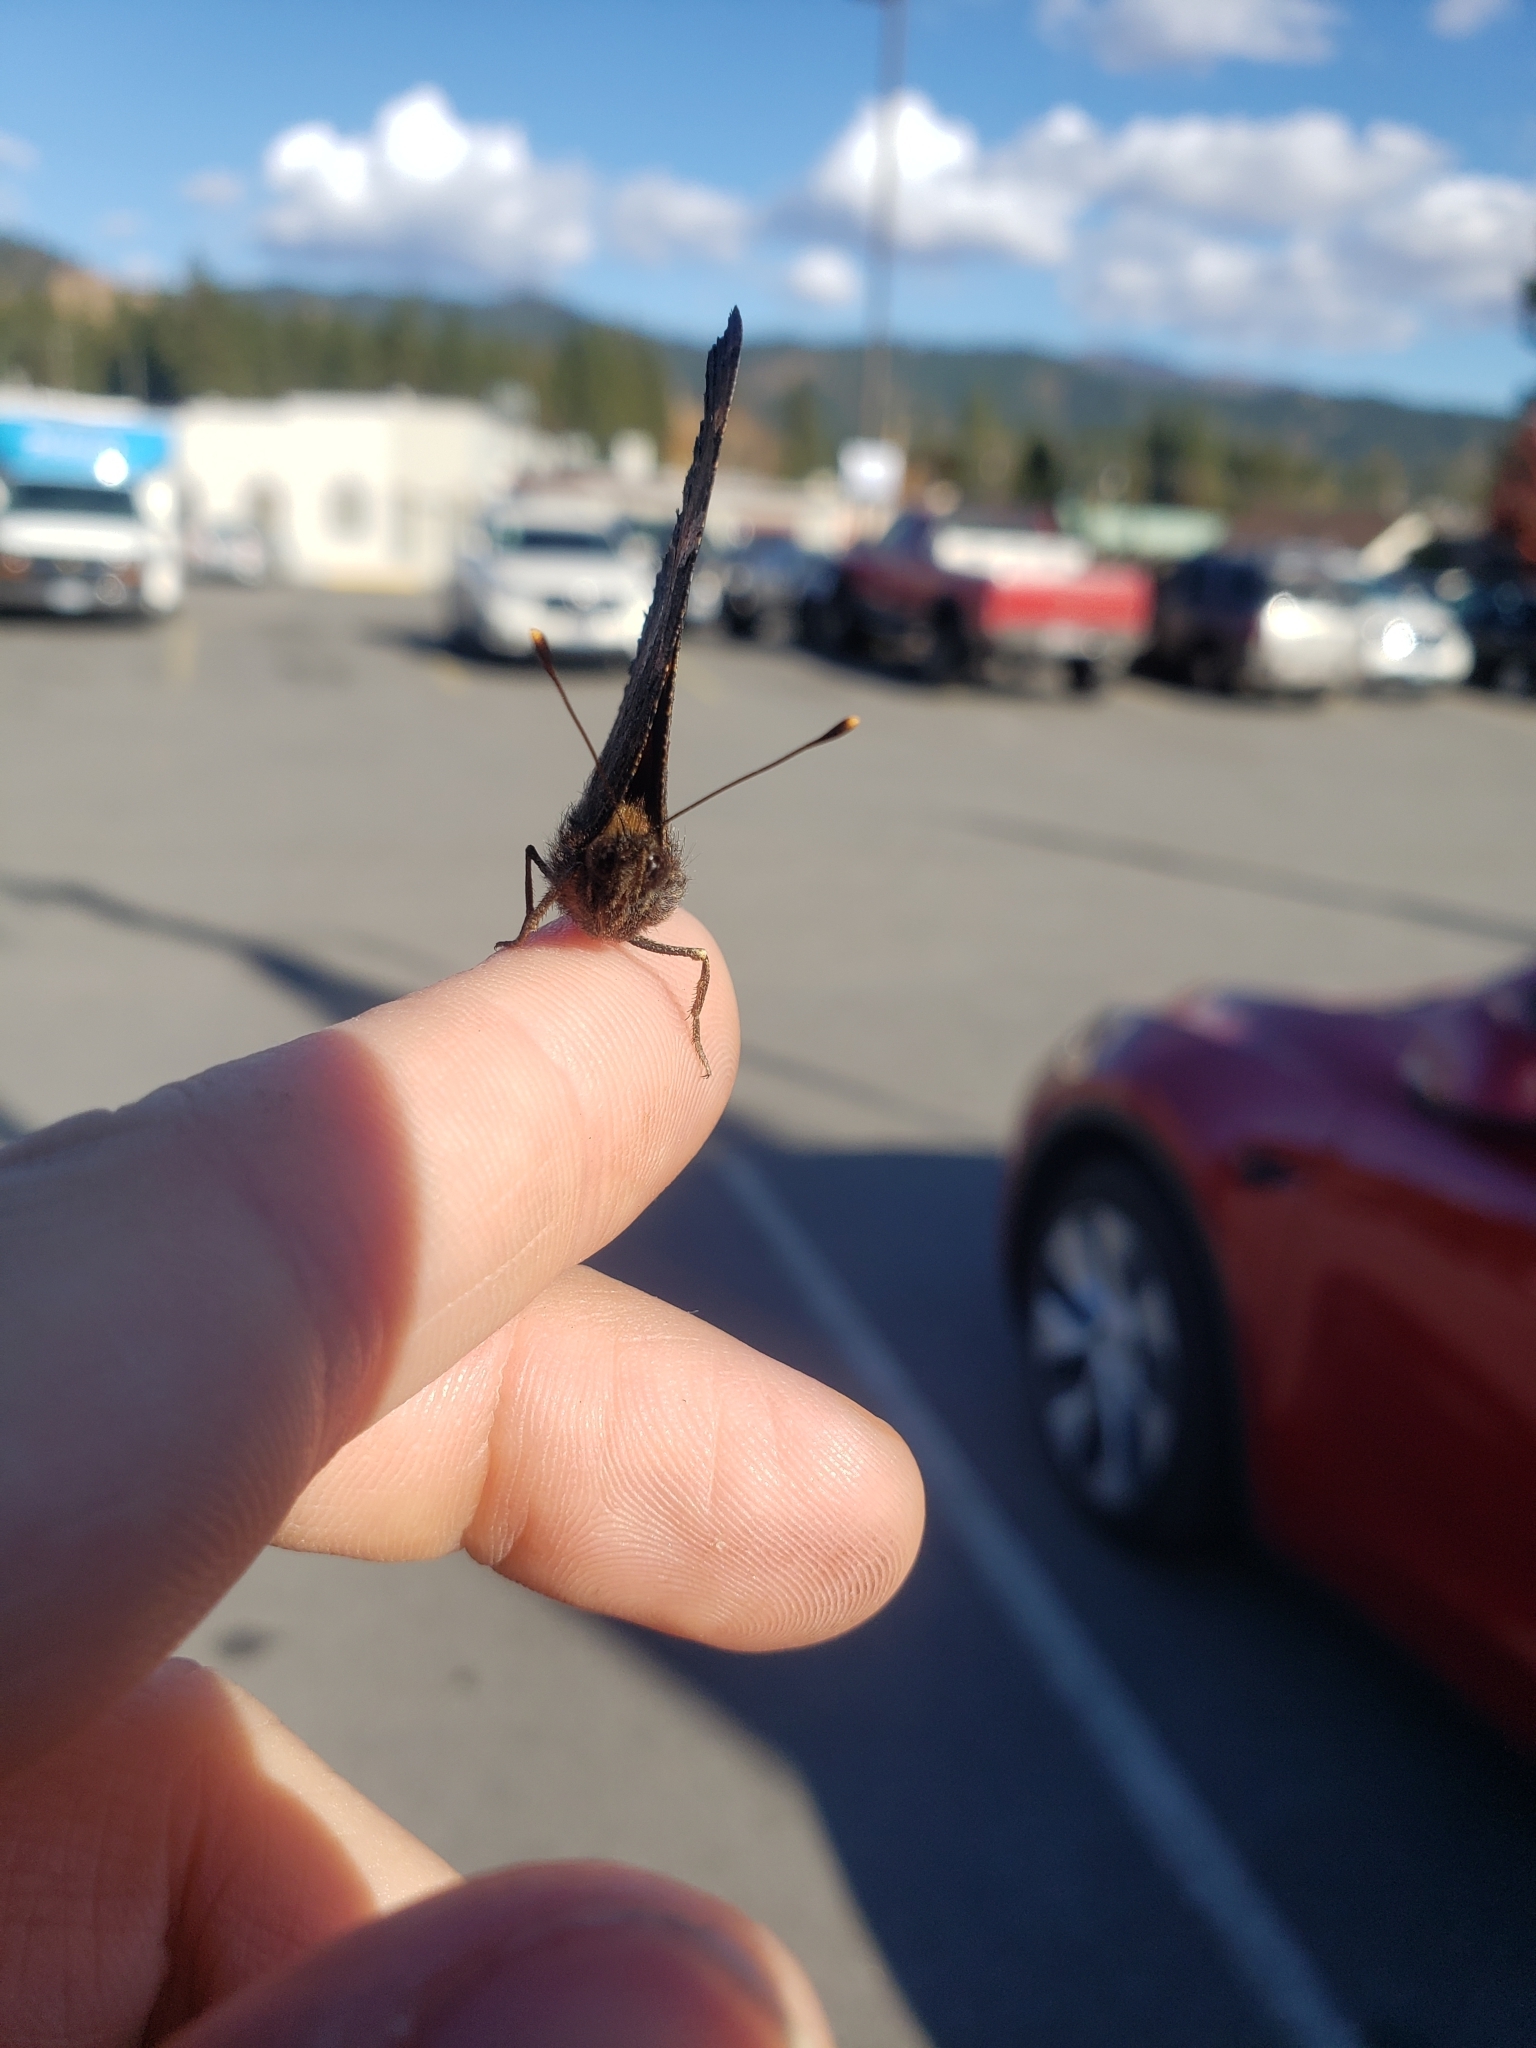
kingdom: Animalia
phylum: Arthropoda
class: Insecta
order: Lepidoptera
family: Nymphalidae
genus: Nymphalis
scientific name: Nymphalis californica
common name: California tortoiseshell
